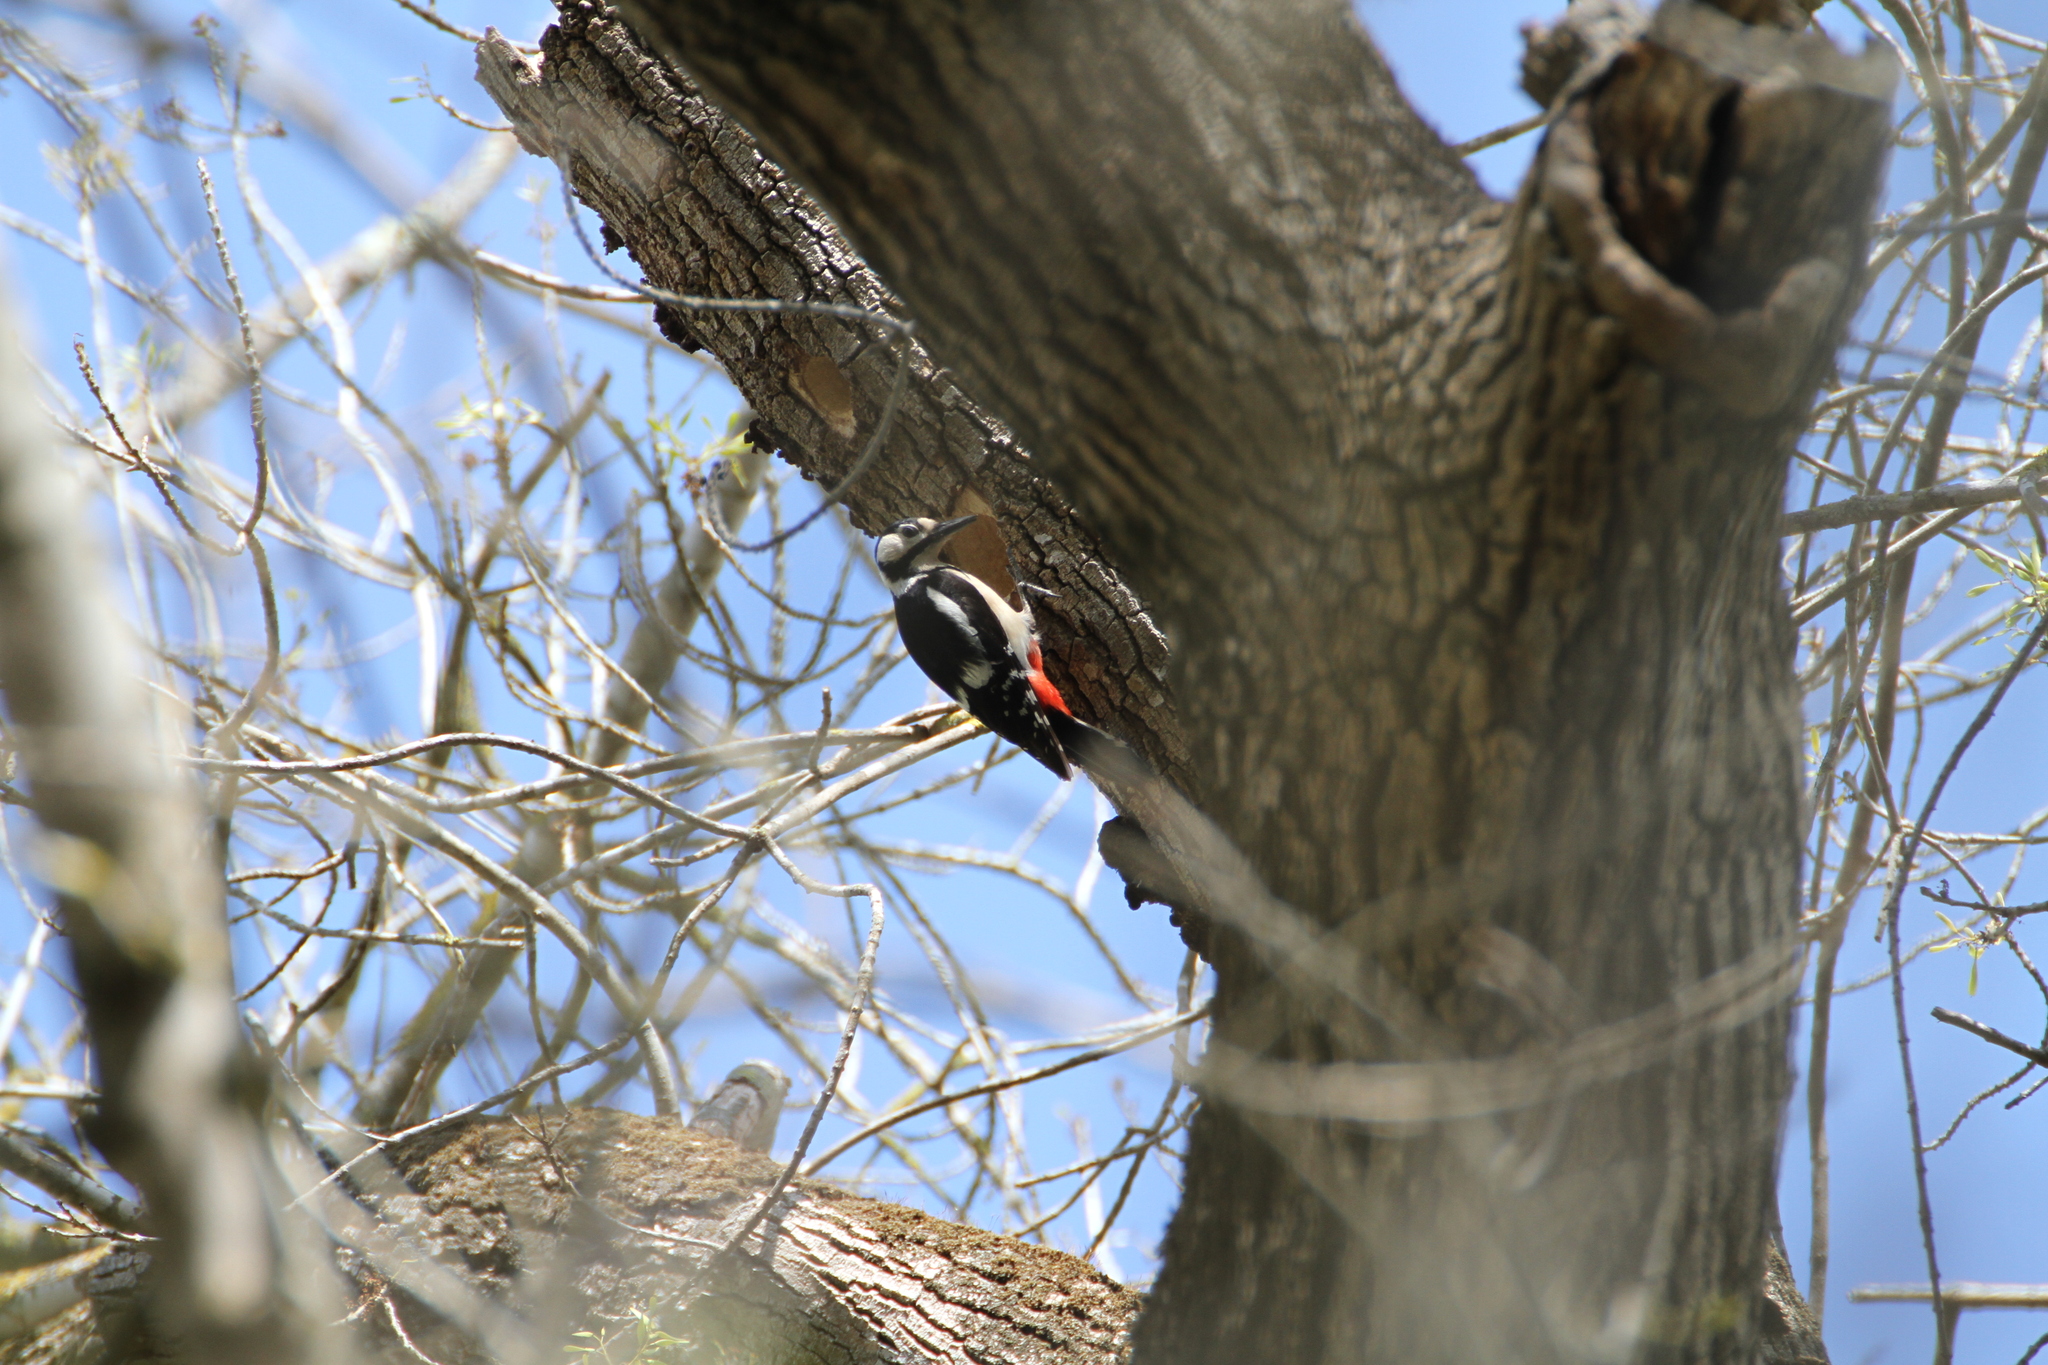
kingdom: Animalia
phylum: Chordata
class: Aves
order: Piciformes
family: Picidae
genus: Dendrocopos
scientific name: Dendrocopos major
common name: Great spotted woodpecker
